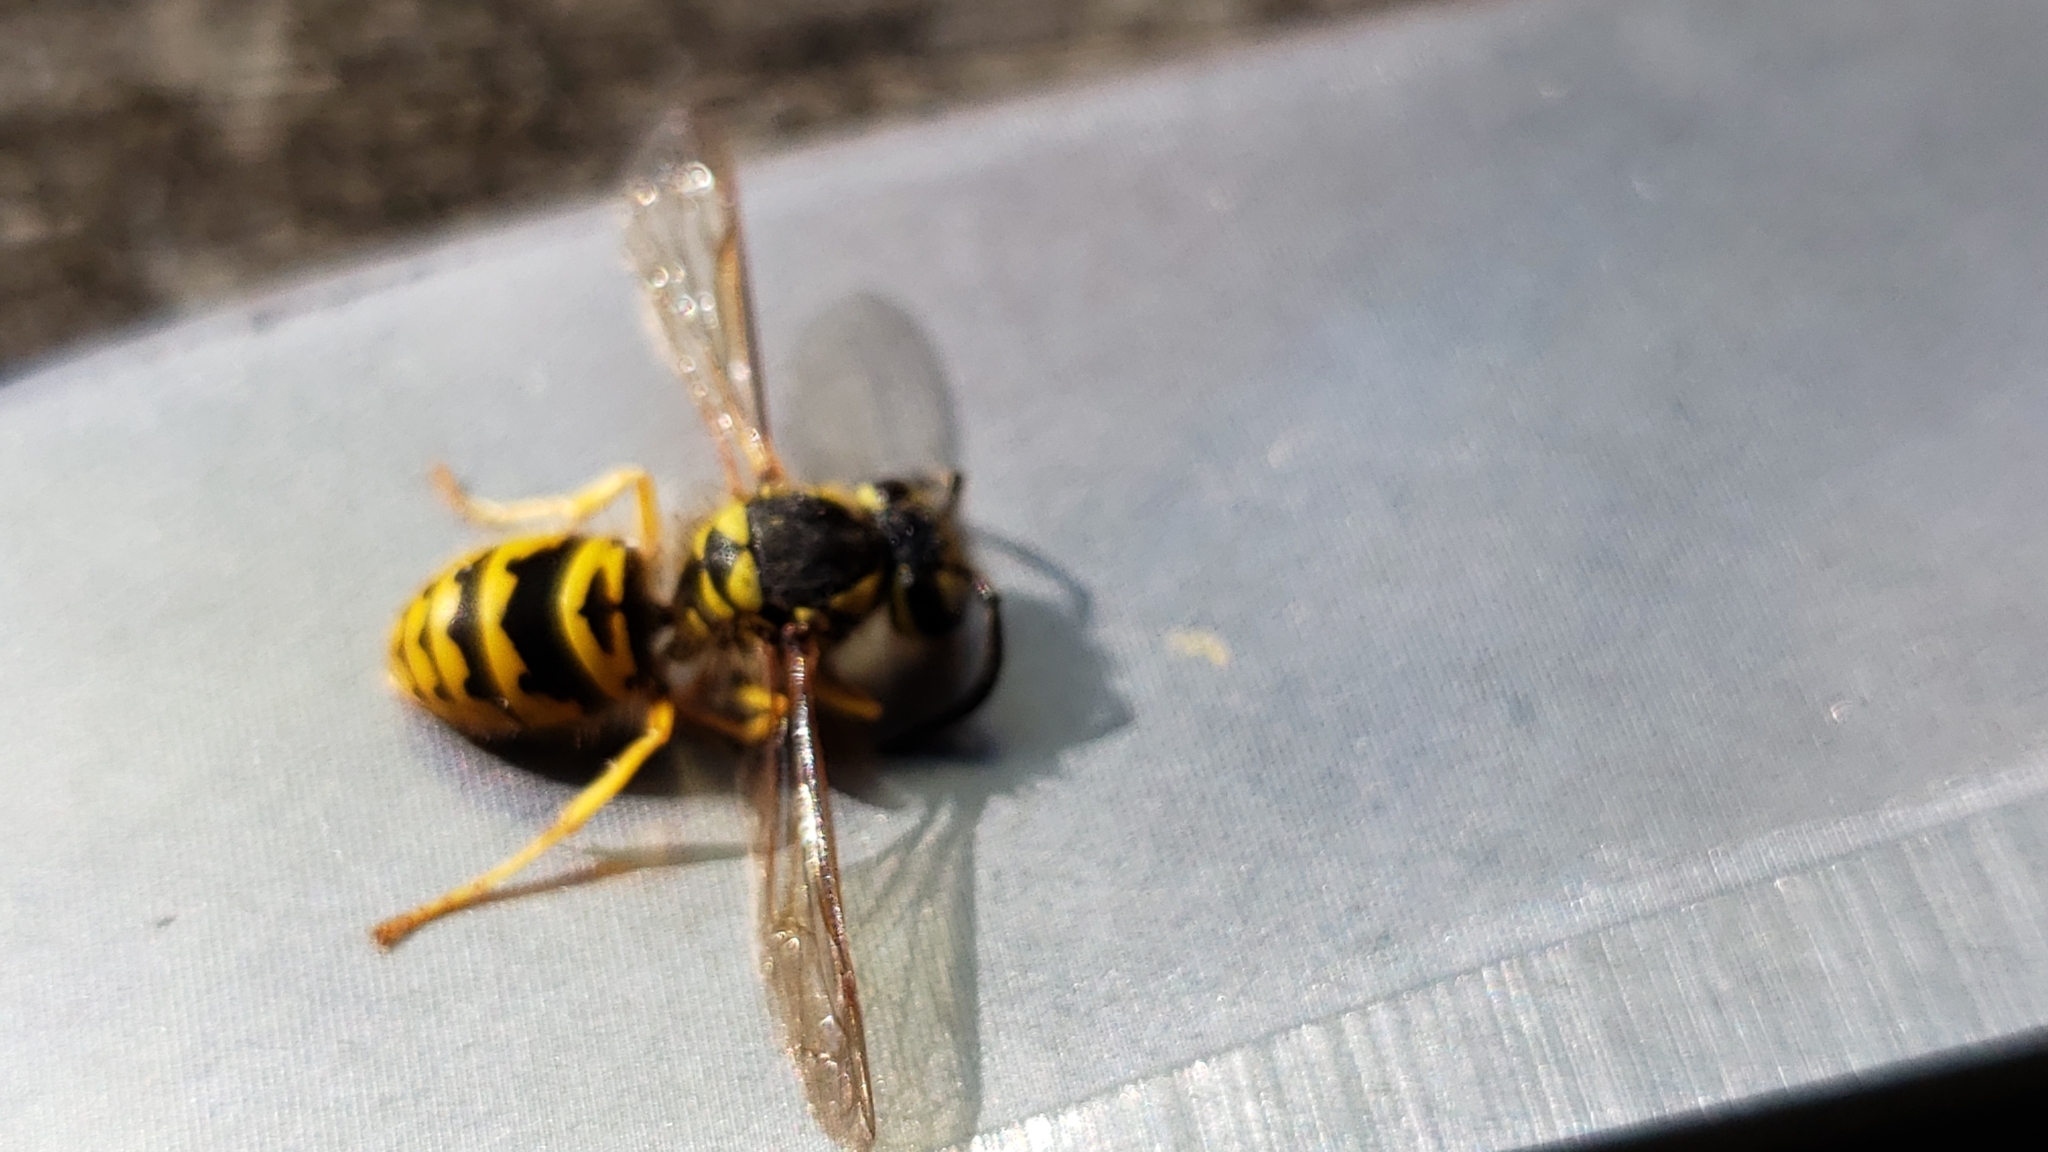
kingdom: Animalia
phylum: Arthropoda
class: Insecta
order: Hymenoptera
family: Vespidae
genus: Vespula
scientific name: Vespula maculifrons
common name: Eastern yellowjacket
